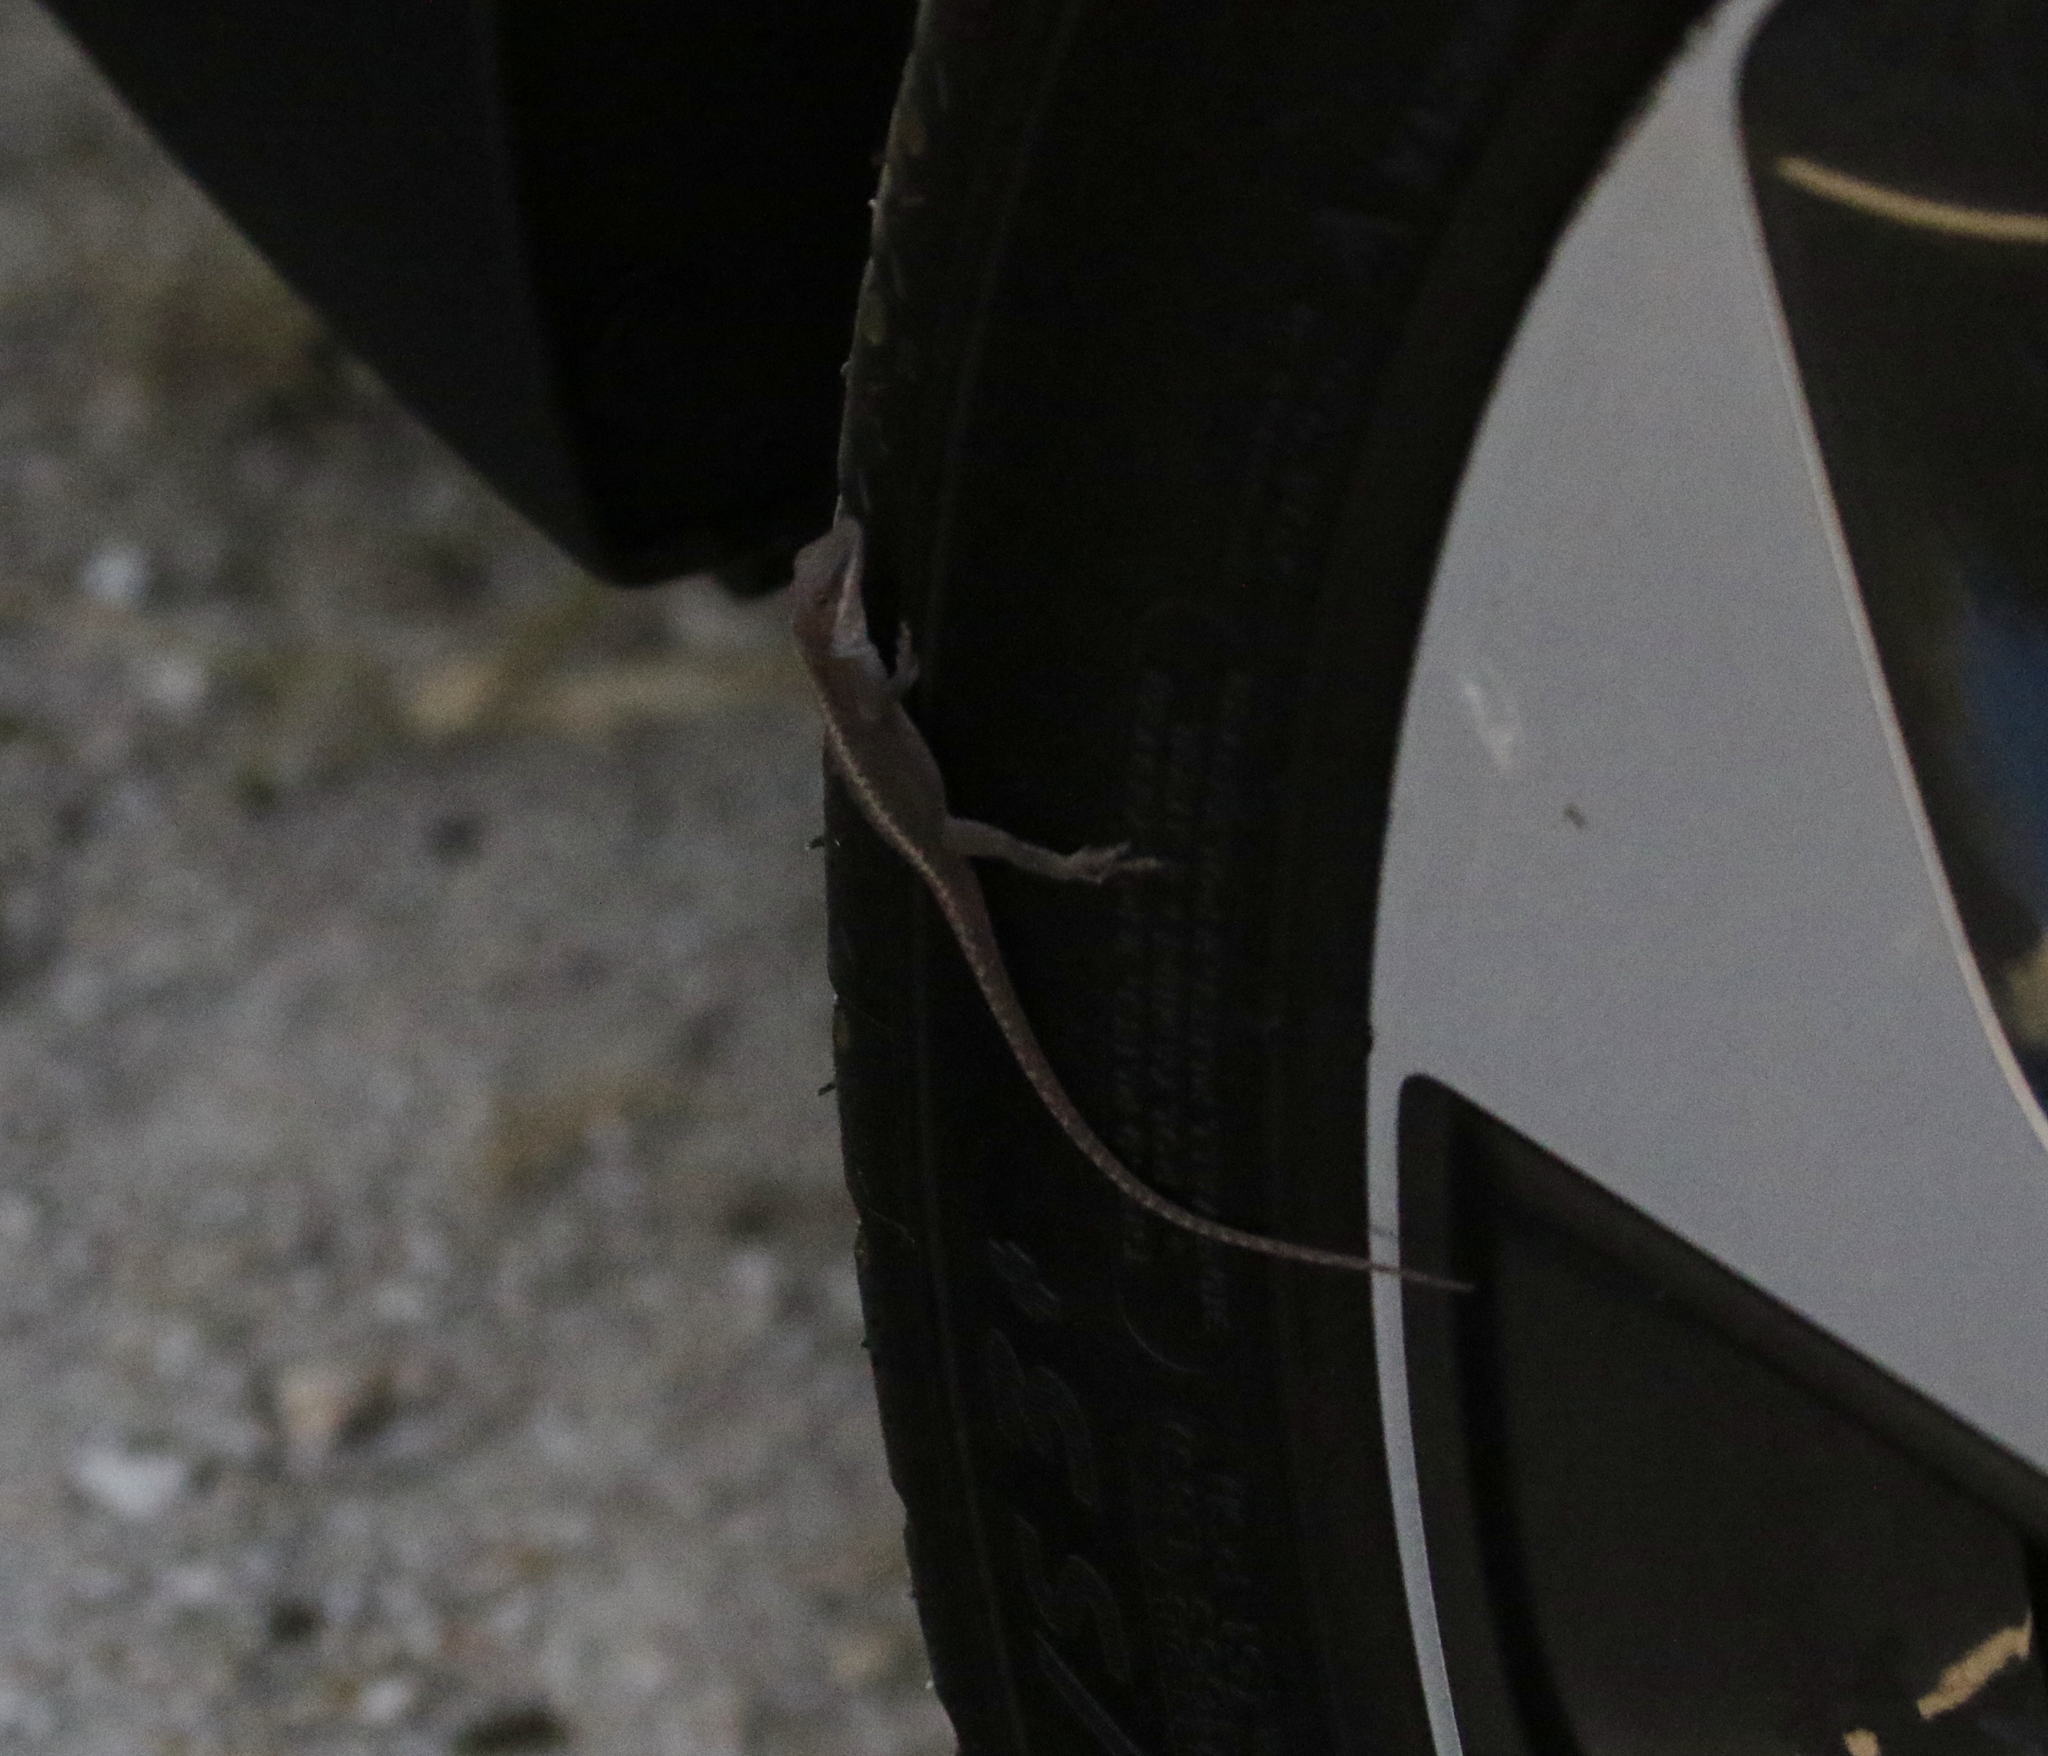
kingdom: Animalia
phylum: Chordata
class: Squamata
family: Dactyloidae
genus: Anolis
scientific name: Anolis carolinensis
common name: Green anole
